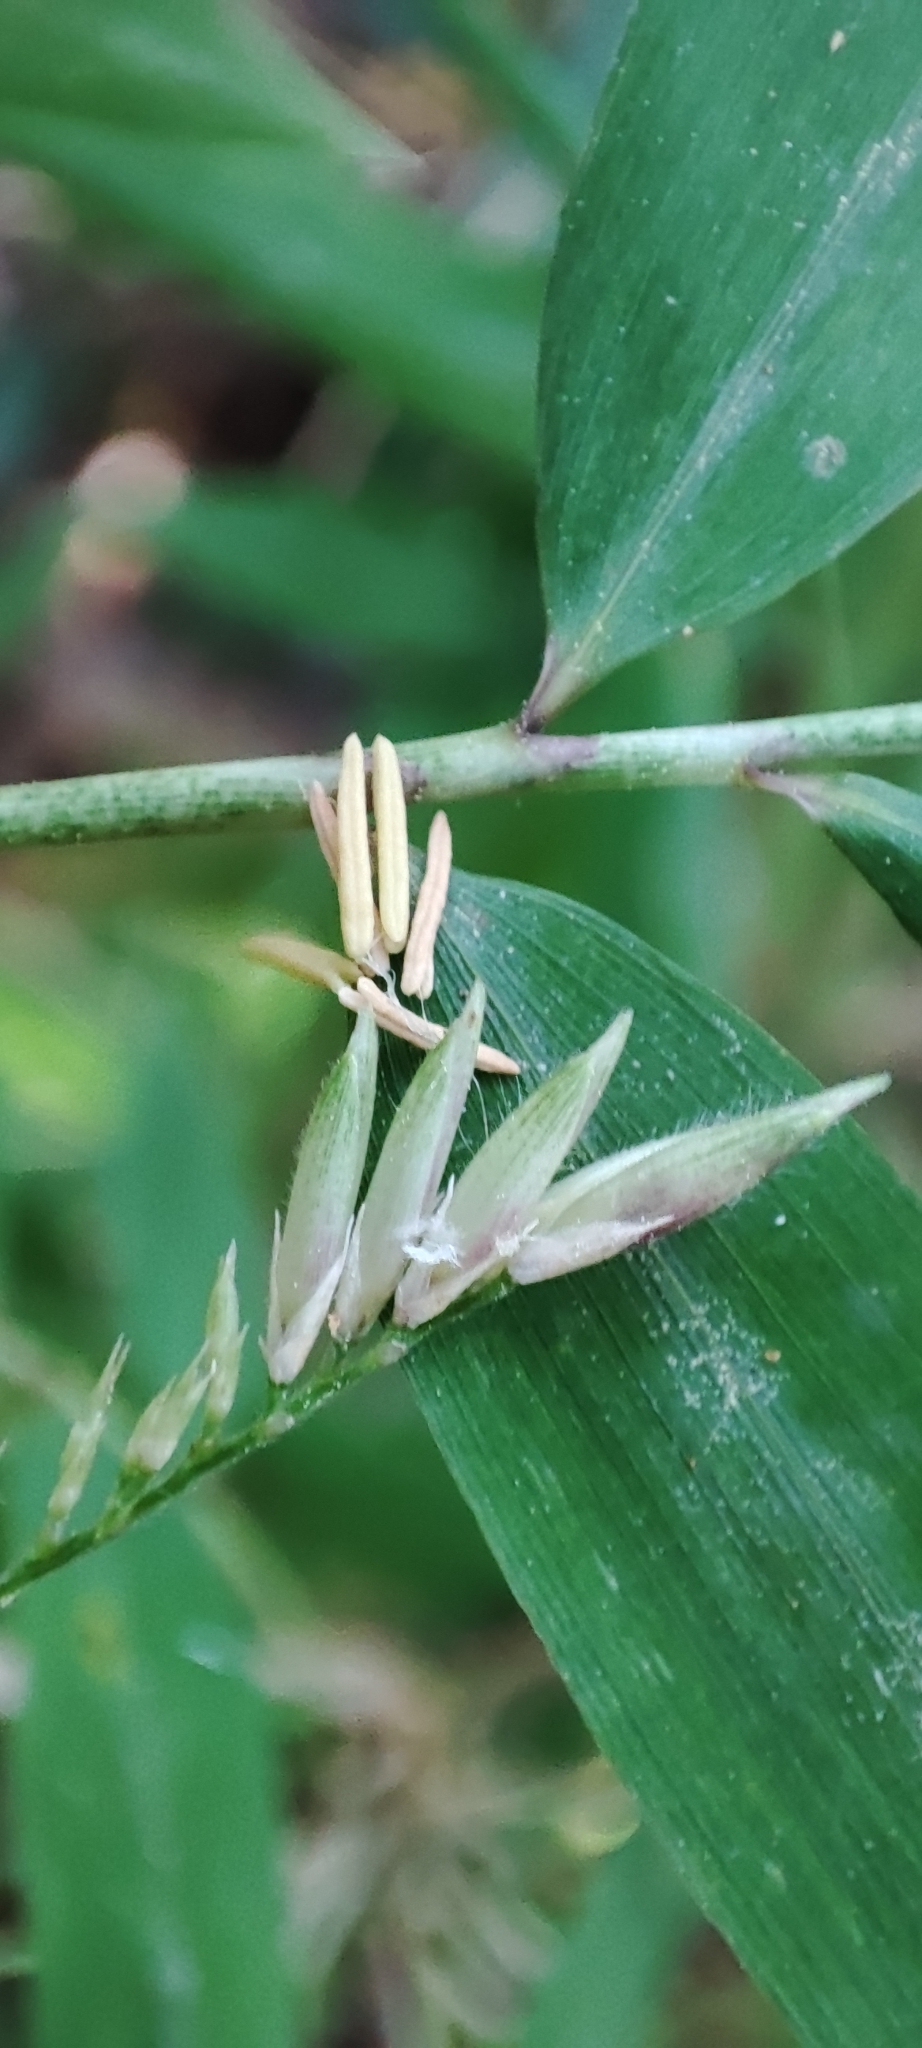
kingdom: Plantae
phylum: Tracheophyta
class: Liliopsida
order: Poales
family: Poaceae
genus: Chusquea
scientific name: Chusquea contrerasii
